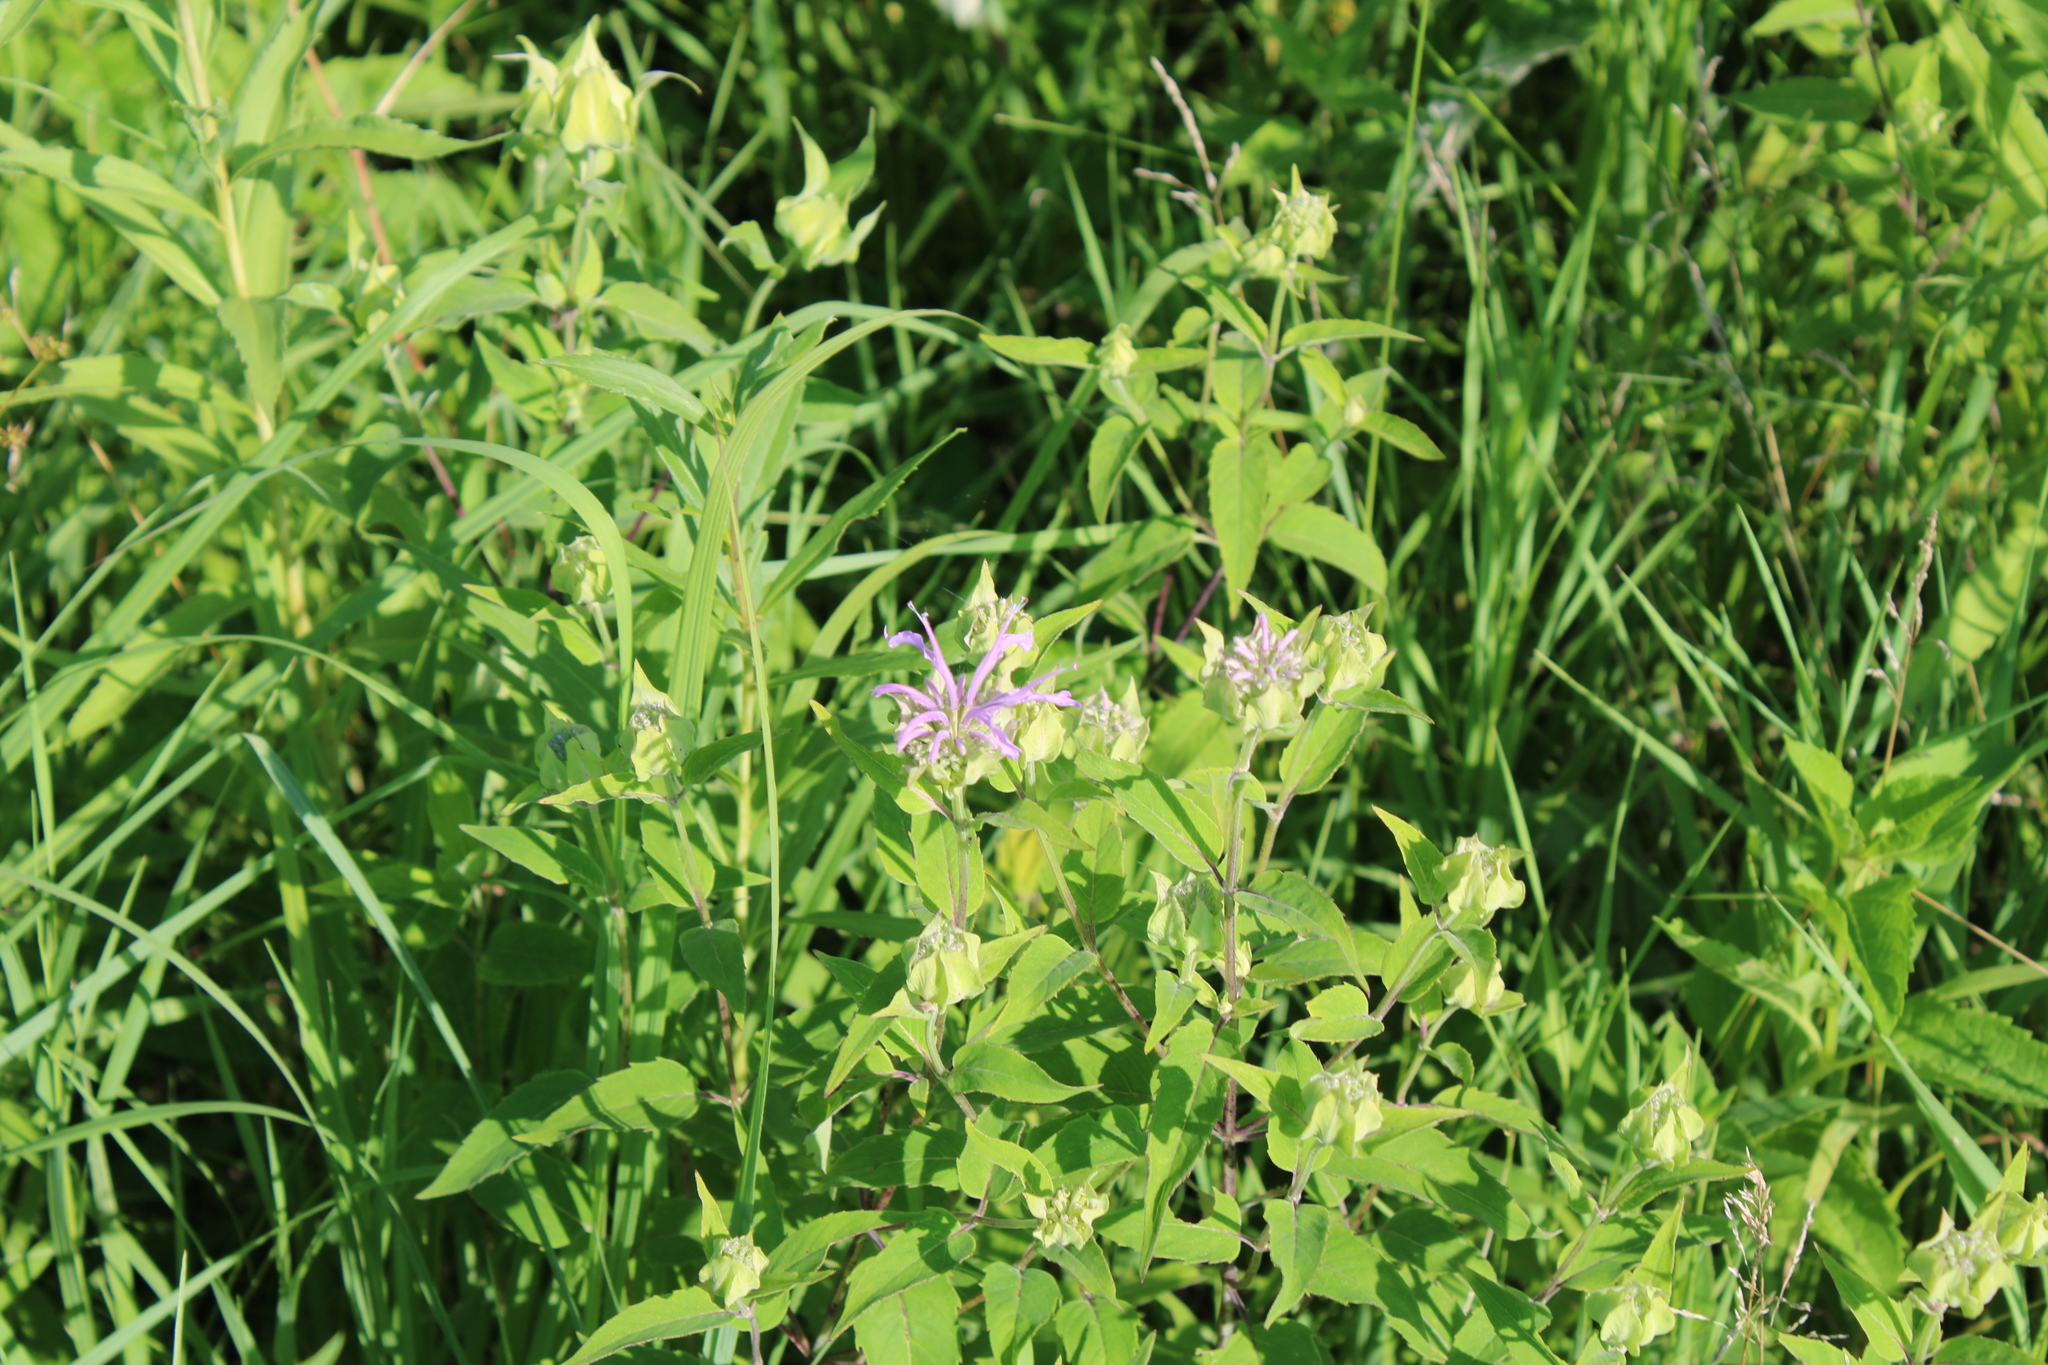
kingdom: Plantae
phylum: Tracheophyta
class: Magnoliopsida
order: Lamiales
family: Lamiaceae
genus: Monarda
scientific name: Monarda fistulosa
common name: Purple beebalm
